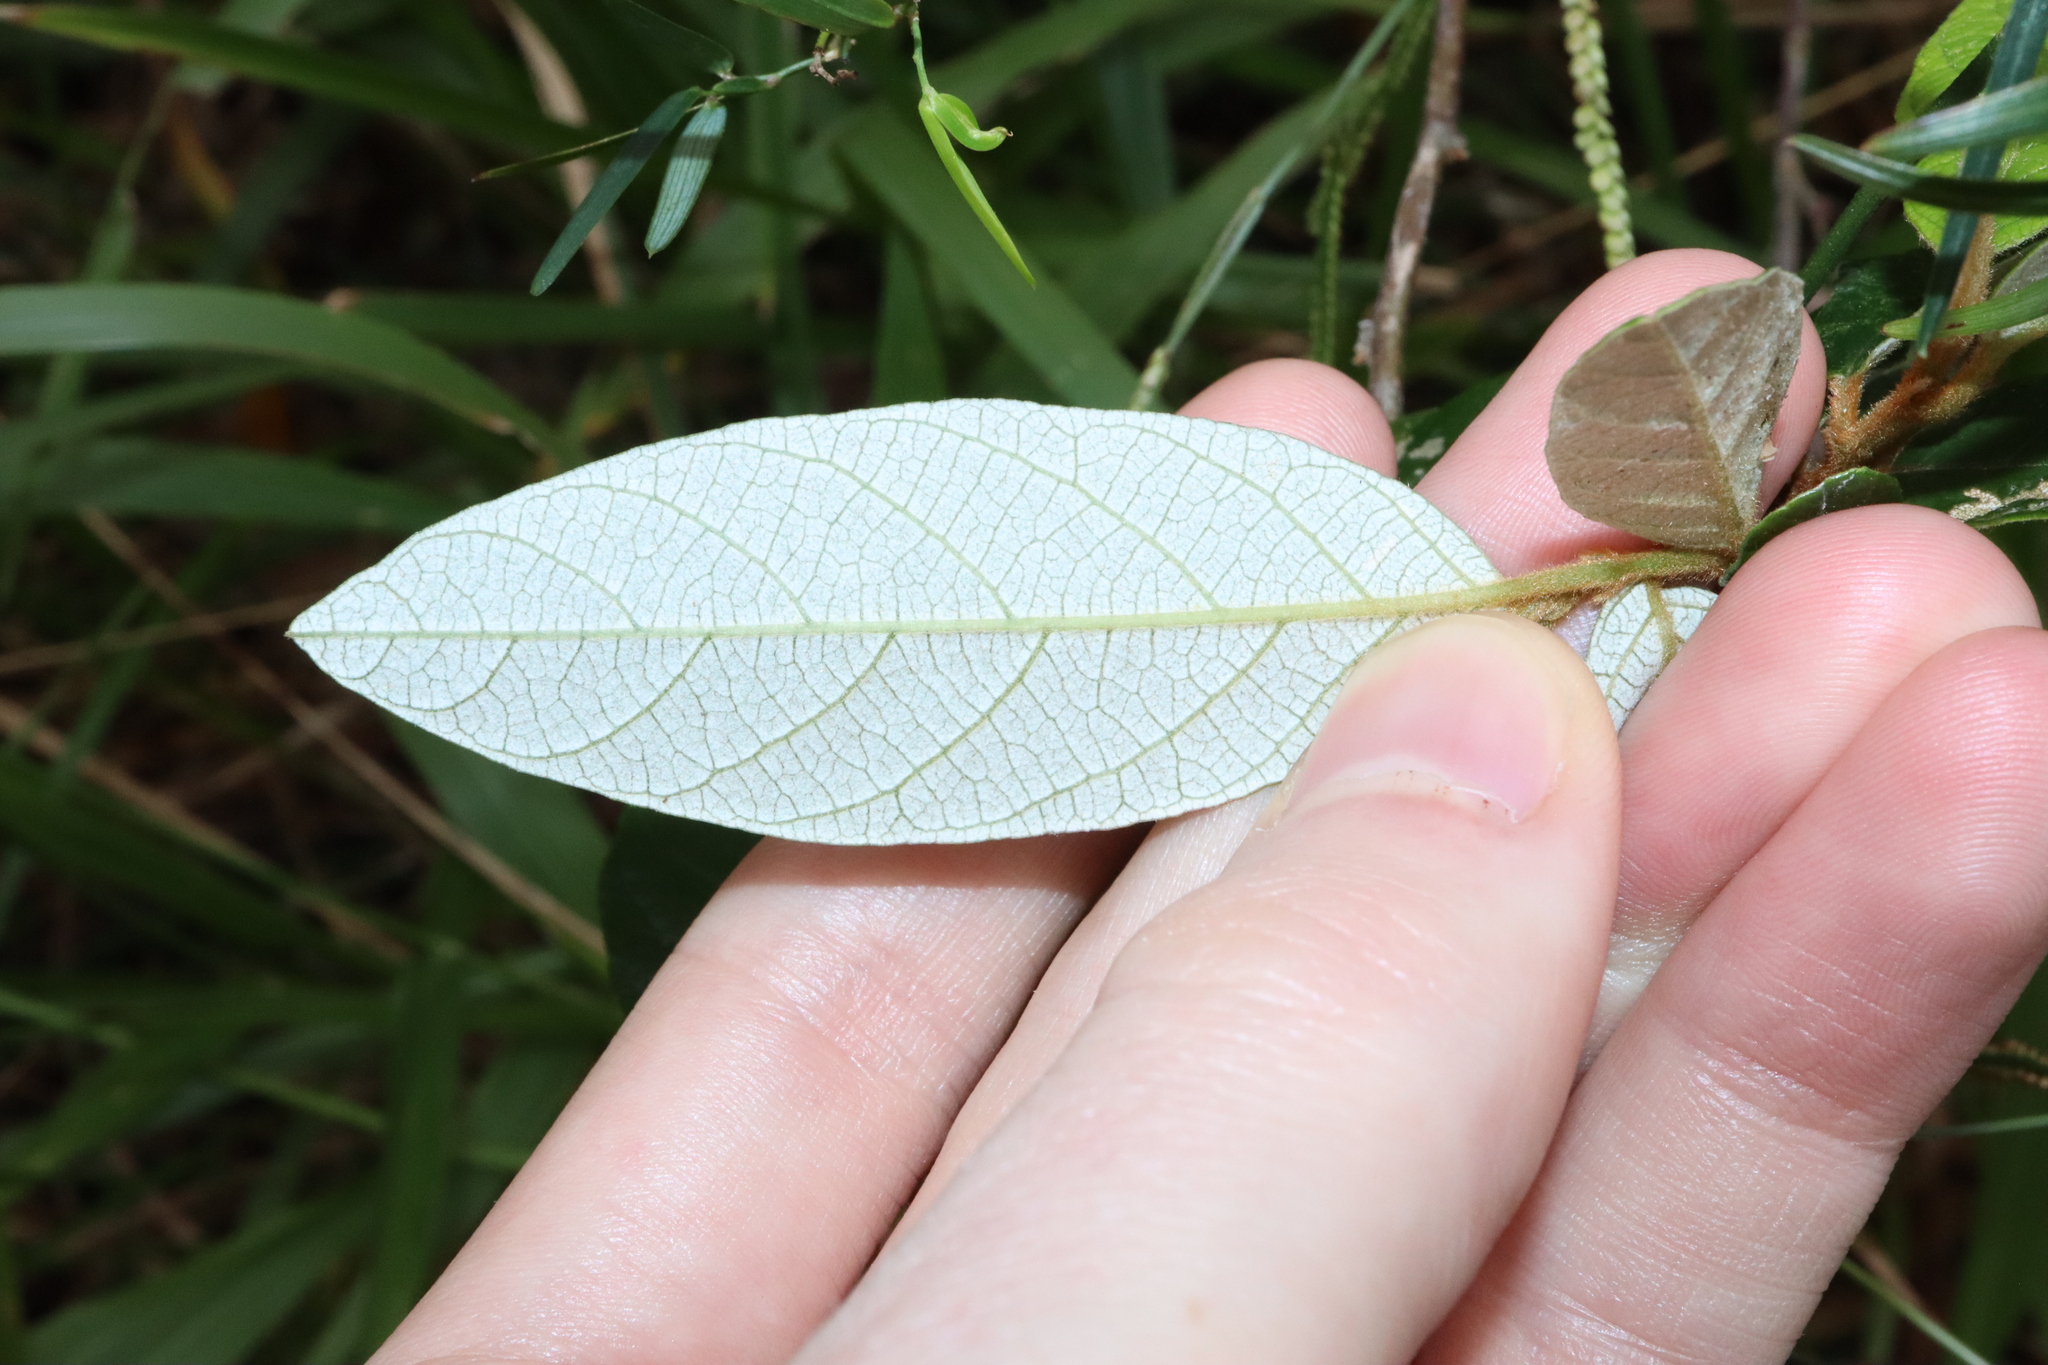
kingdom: Plantae
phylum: Tracheophyta
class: Magnoliopsida
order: Rosales
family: Rhamnaceae
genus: Alphitonia
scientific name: Alphitonia excelsa
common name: Red ash
